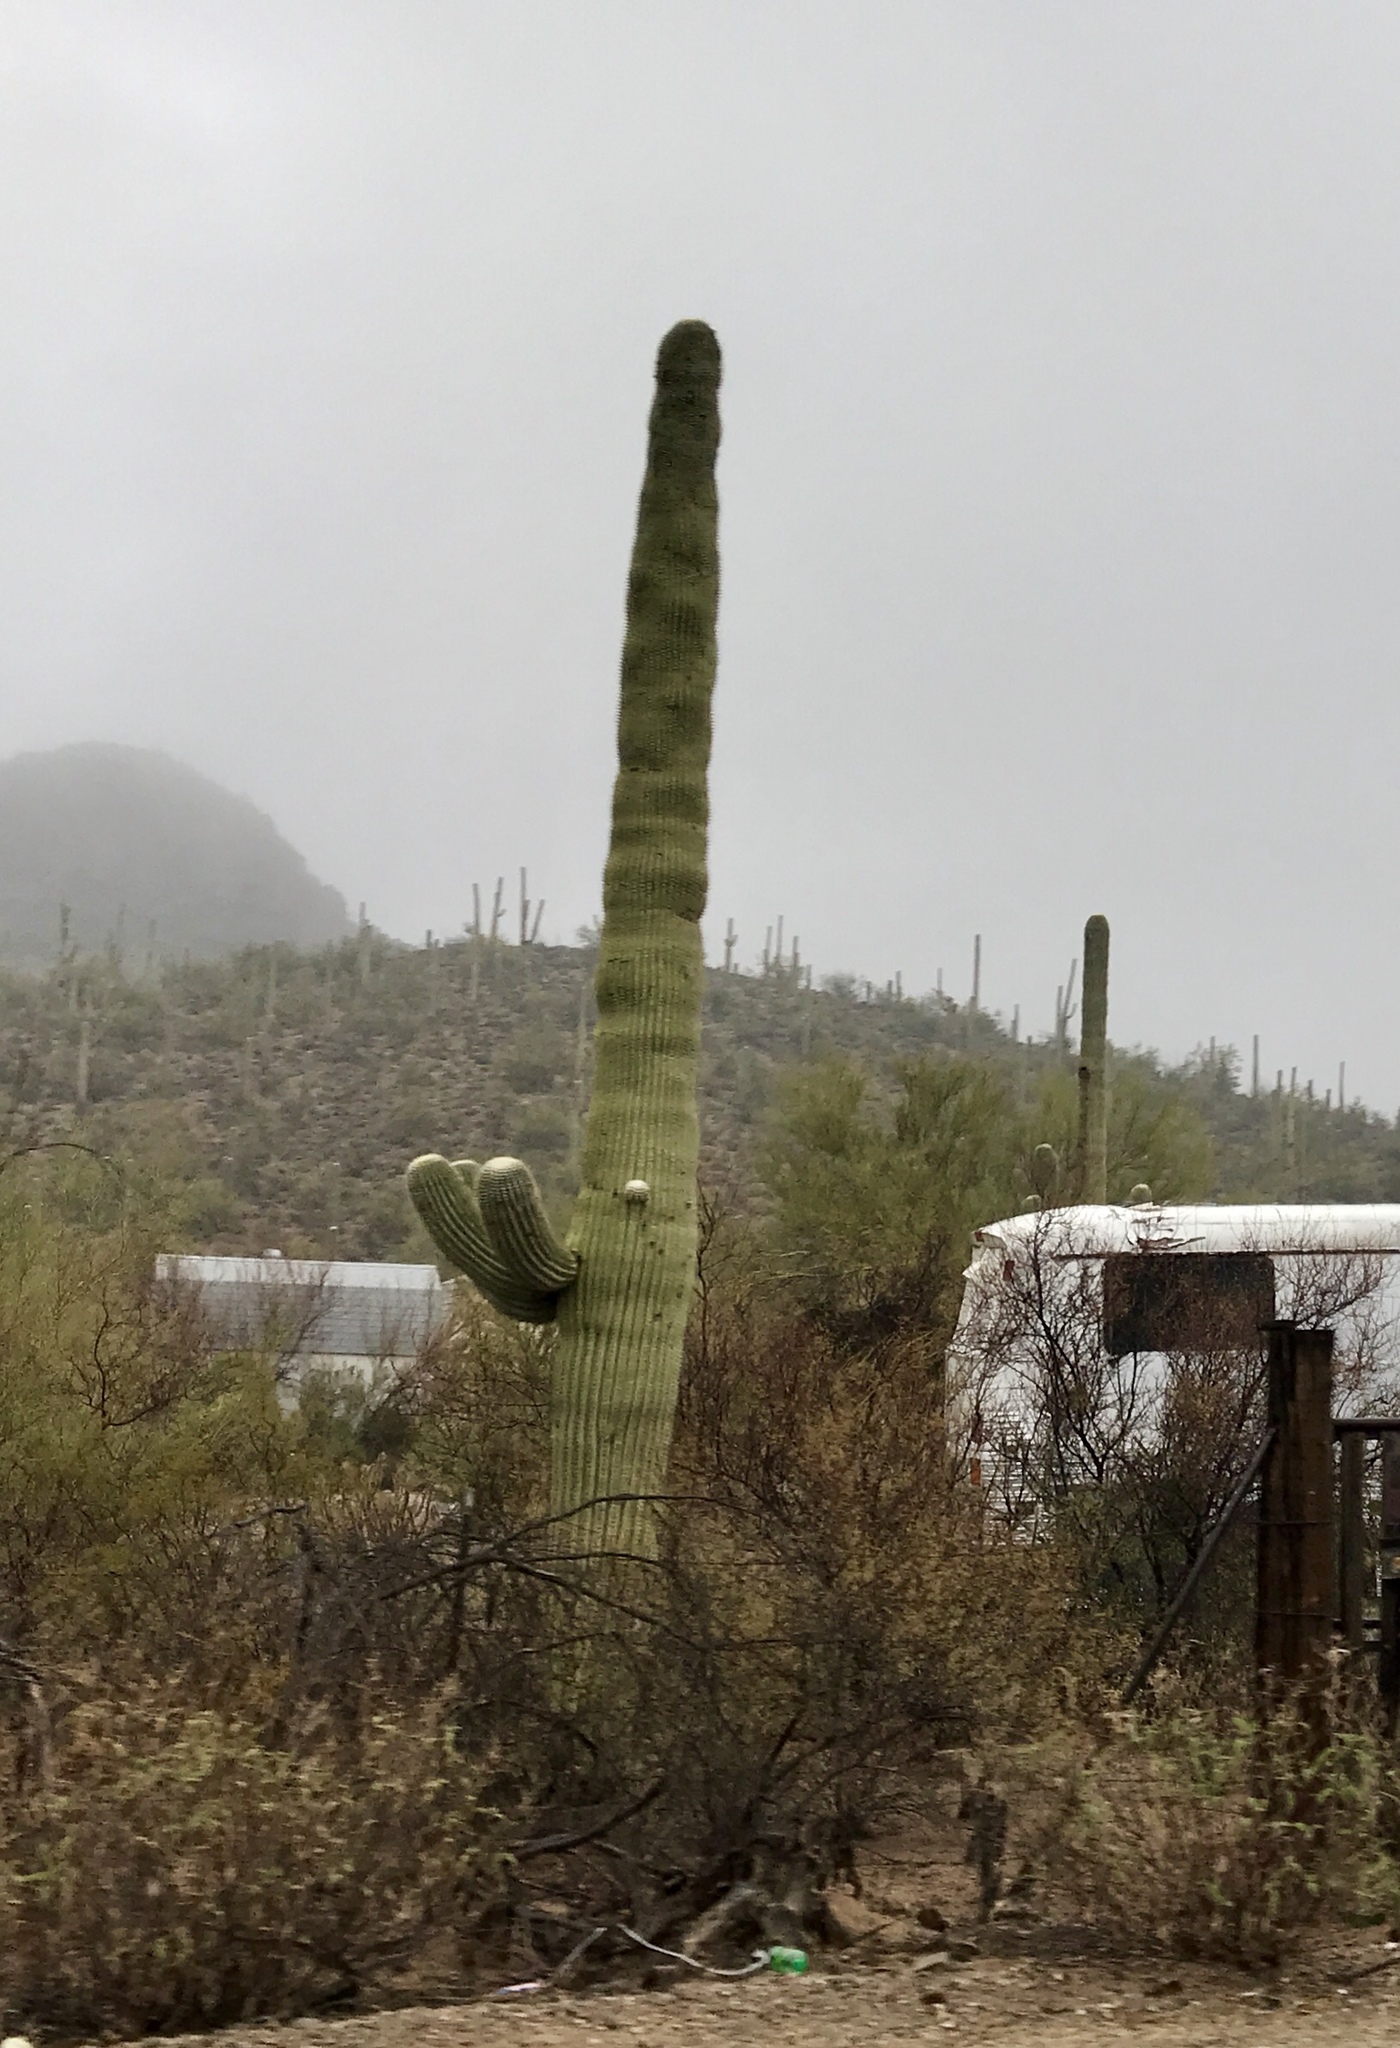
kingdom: Plantae
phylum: Tracheophyta
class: Magnoliopsida
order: Caryophyllales
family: Cactaceae
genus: Carnegiea
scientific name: Carnegiea gigantea
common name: Saguaro
